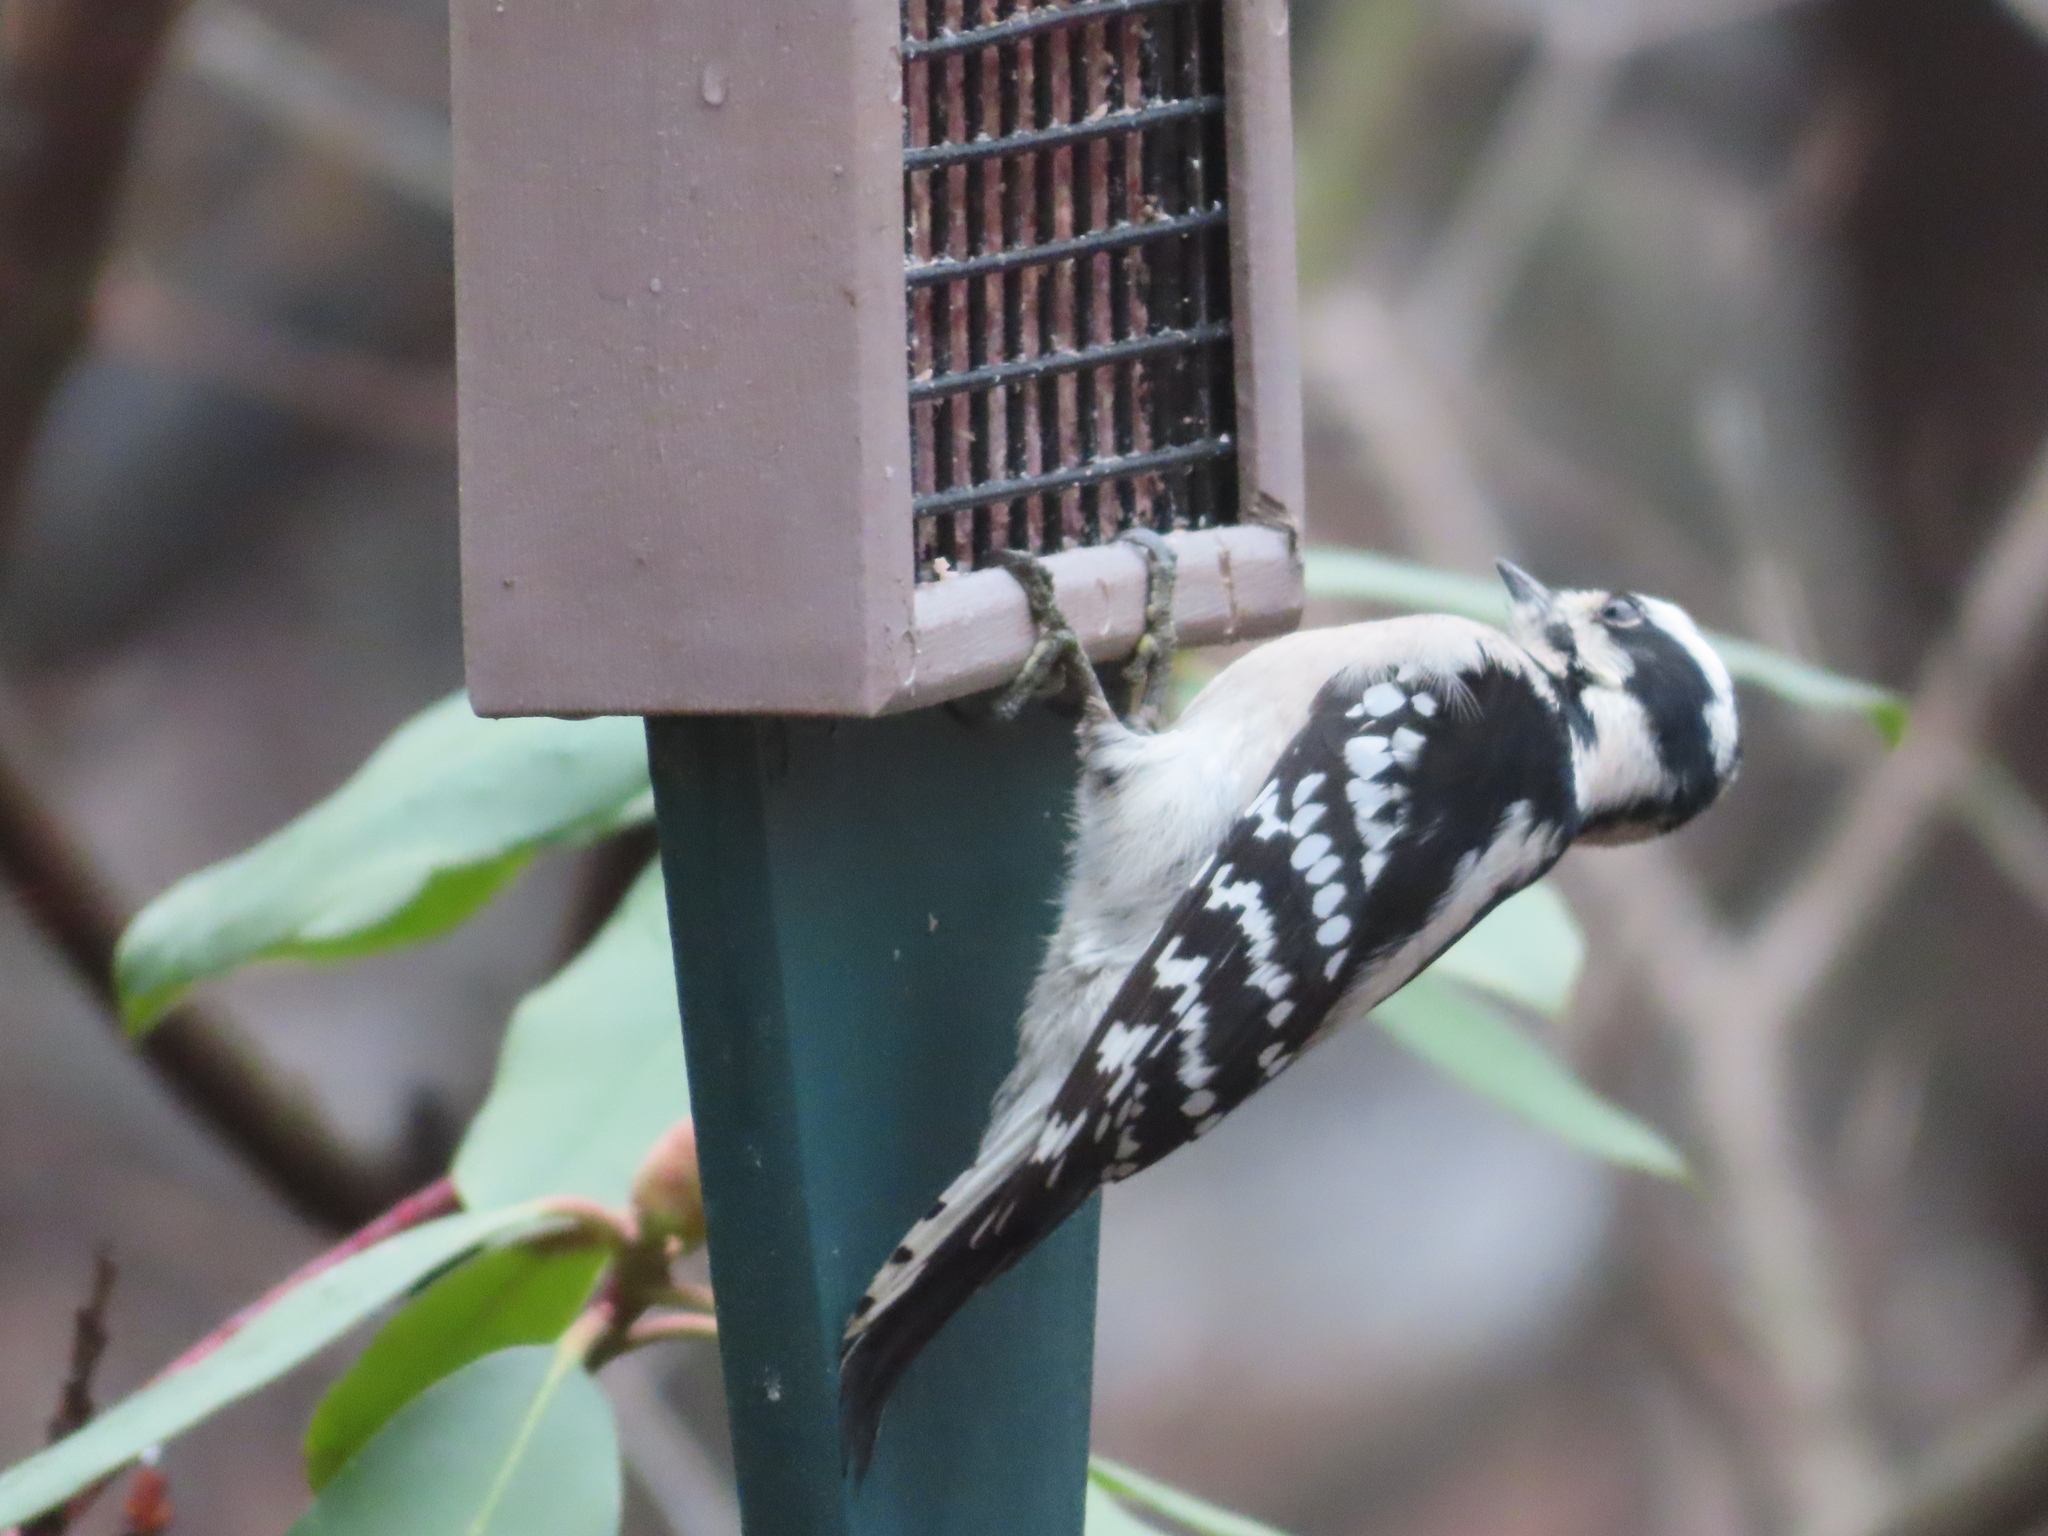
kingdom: Animalia
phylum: Chordata
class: Aves
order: Piciformes
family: Picidae
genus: Dryobates
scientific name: Dryobates pubescens
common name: Downy woodpecker
